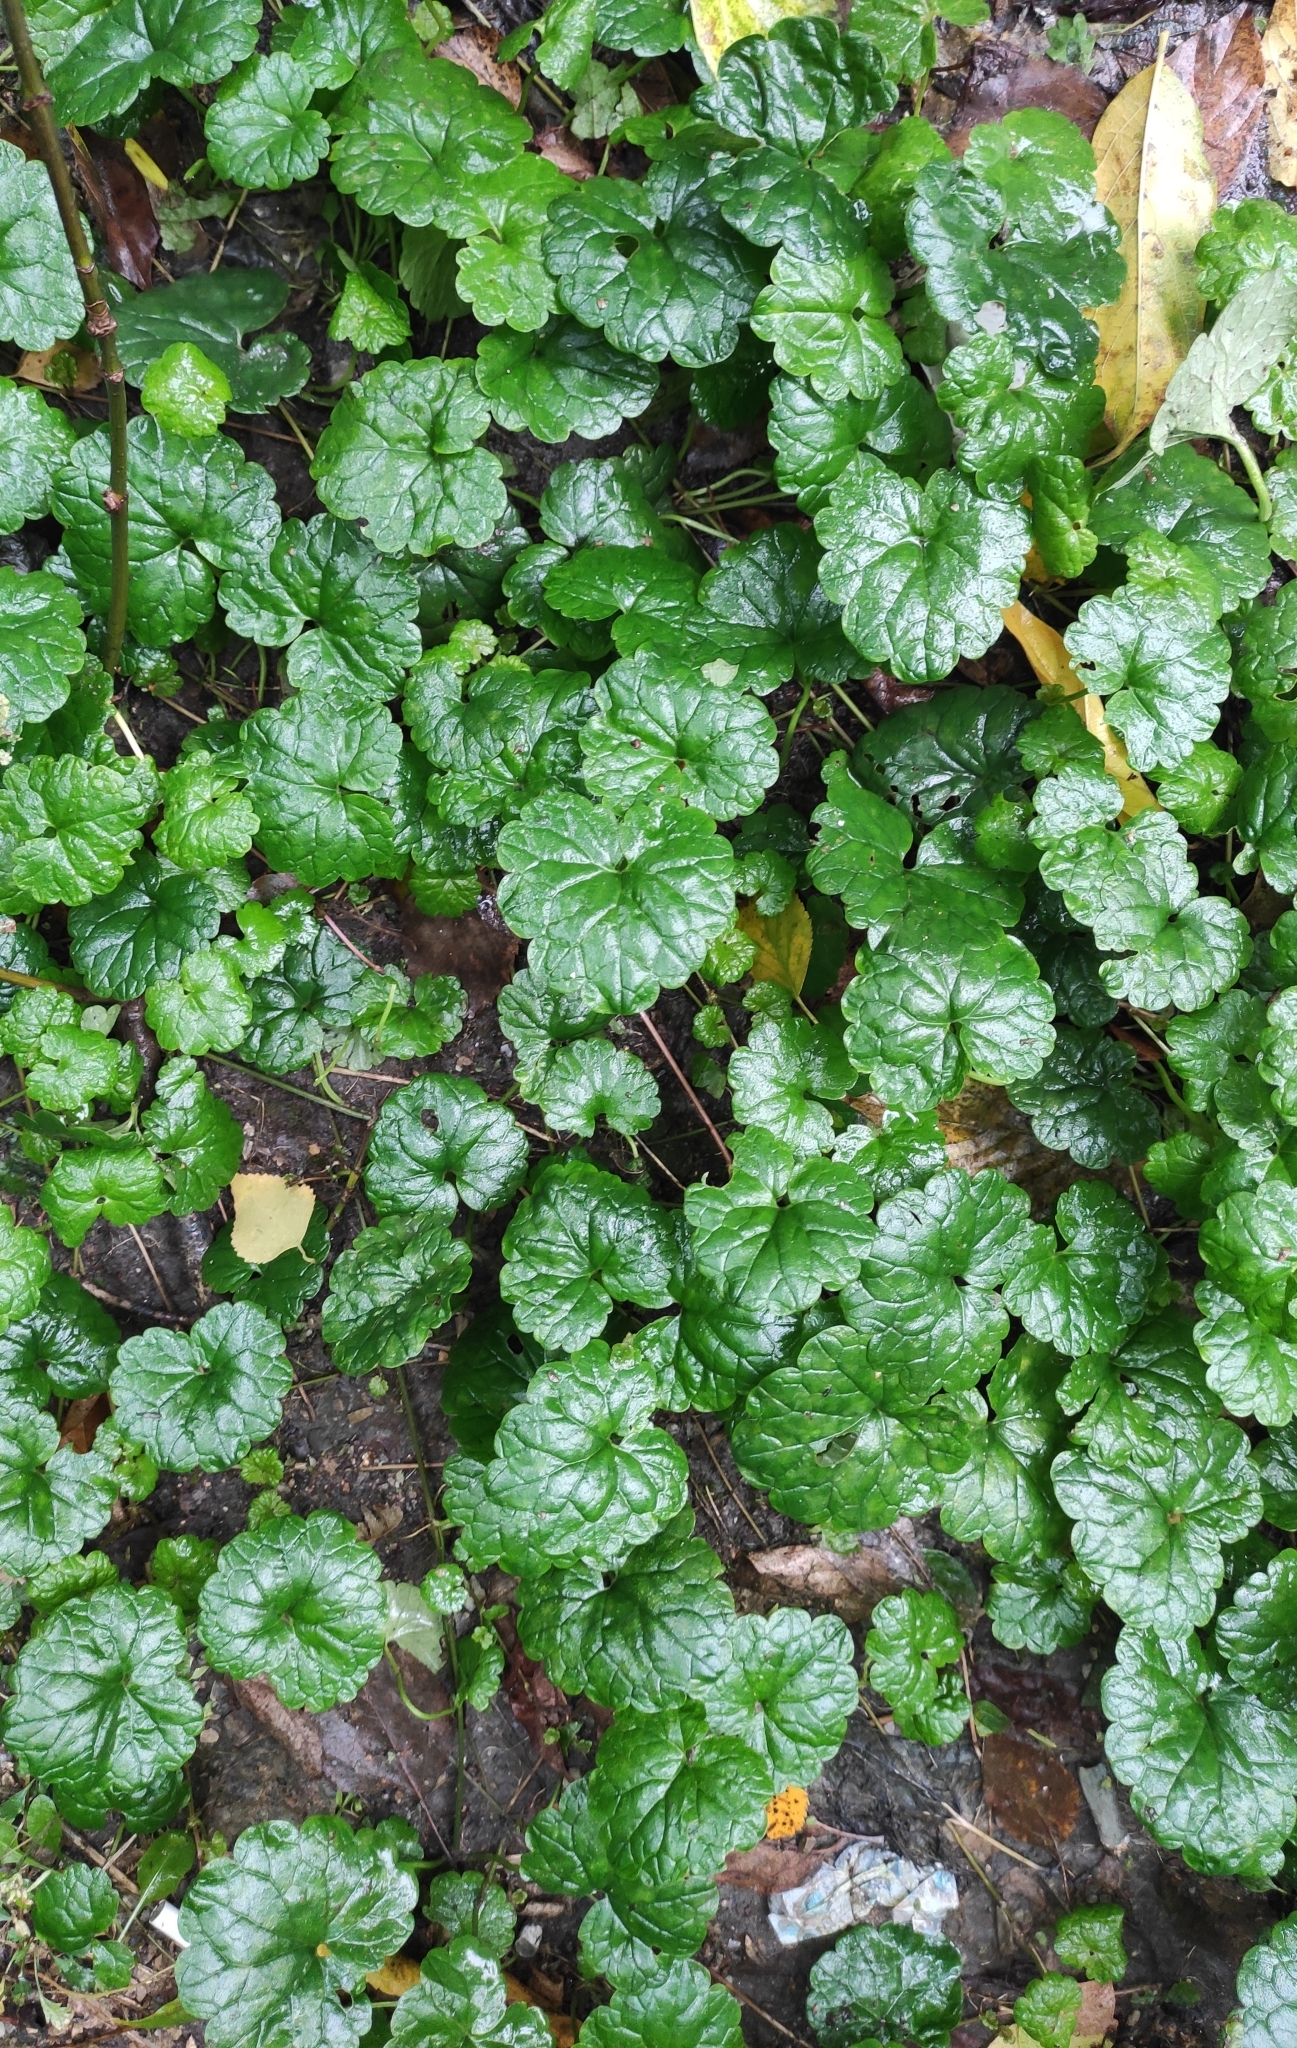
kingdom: Plantae
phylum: Tracheophyta
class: Magnoliopsida
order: Lamiales
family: Lamiaceae
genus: Glechoma
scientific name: Glechoma hederacea
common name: Ground ivy
